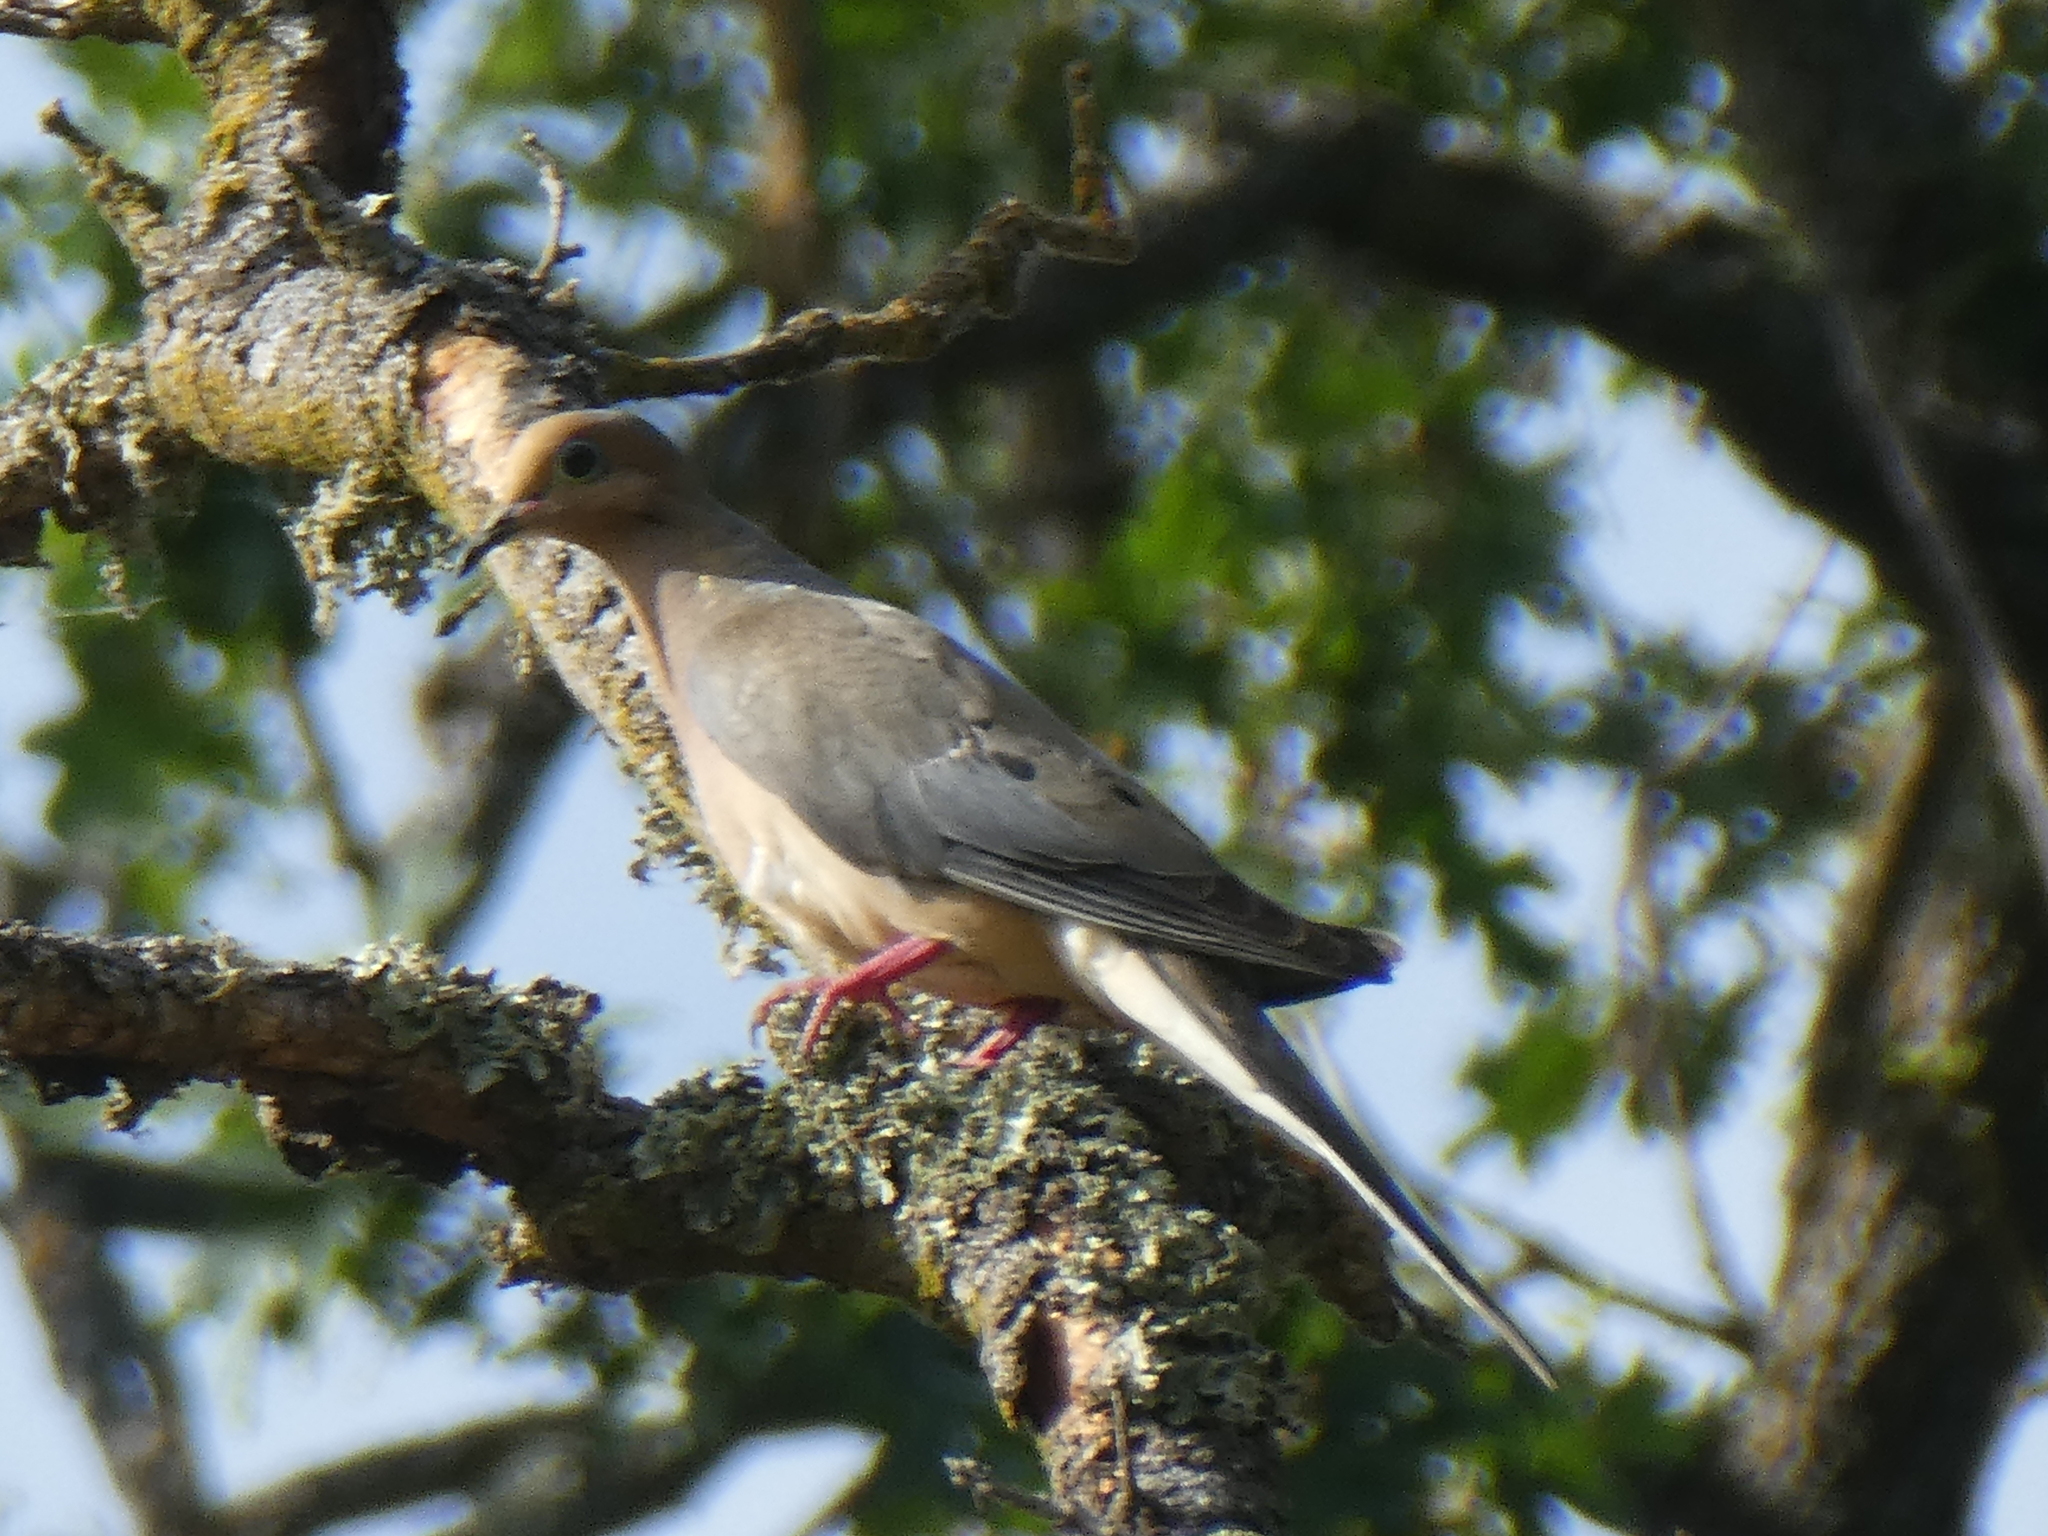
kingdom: Animalia
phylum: Chordata
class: Aves
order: Columbiformes
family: Columbidae
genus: Zenaida
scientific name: Zenaida macroura
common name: Mourning dove
